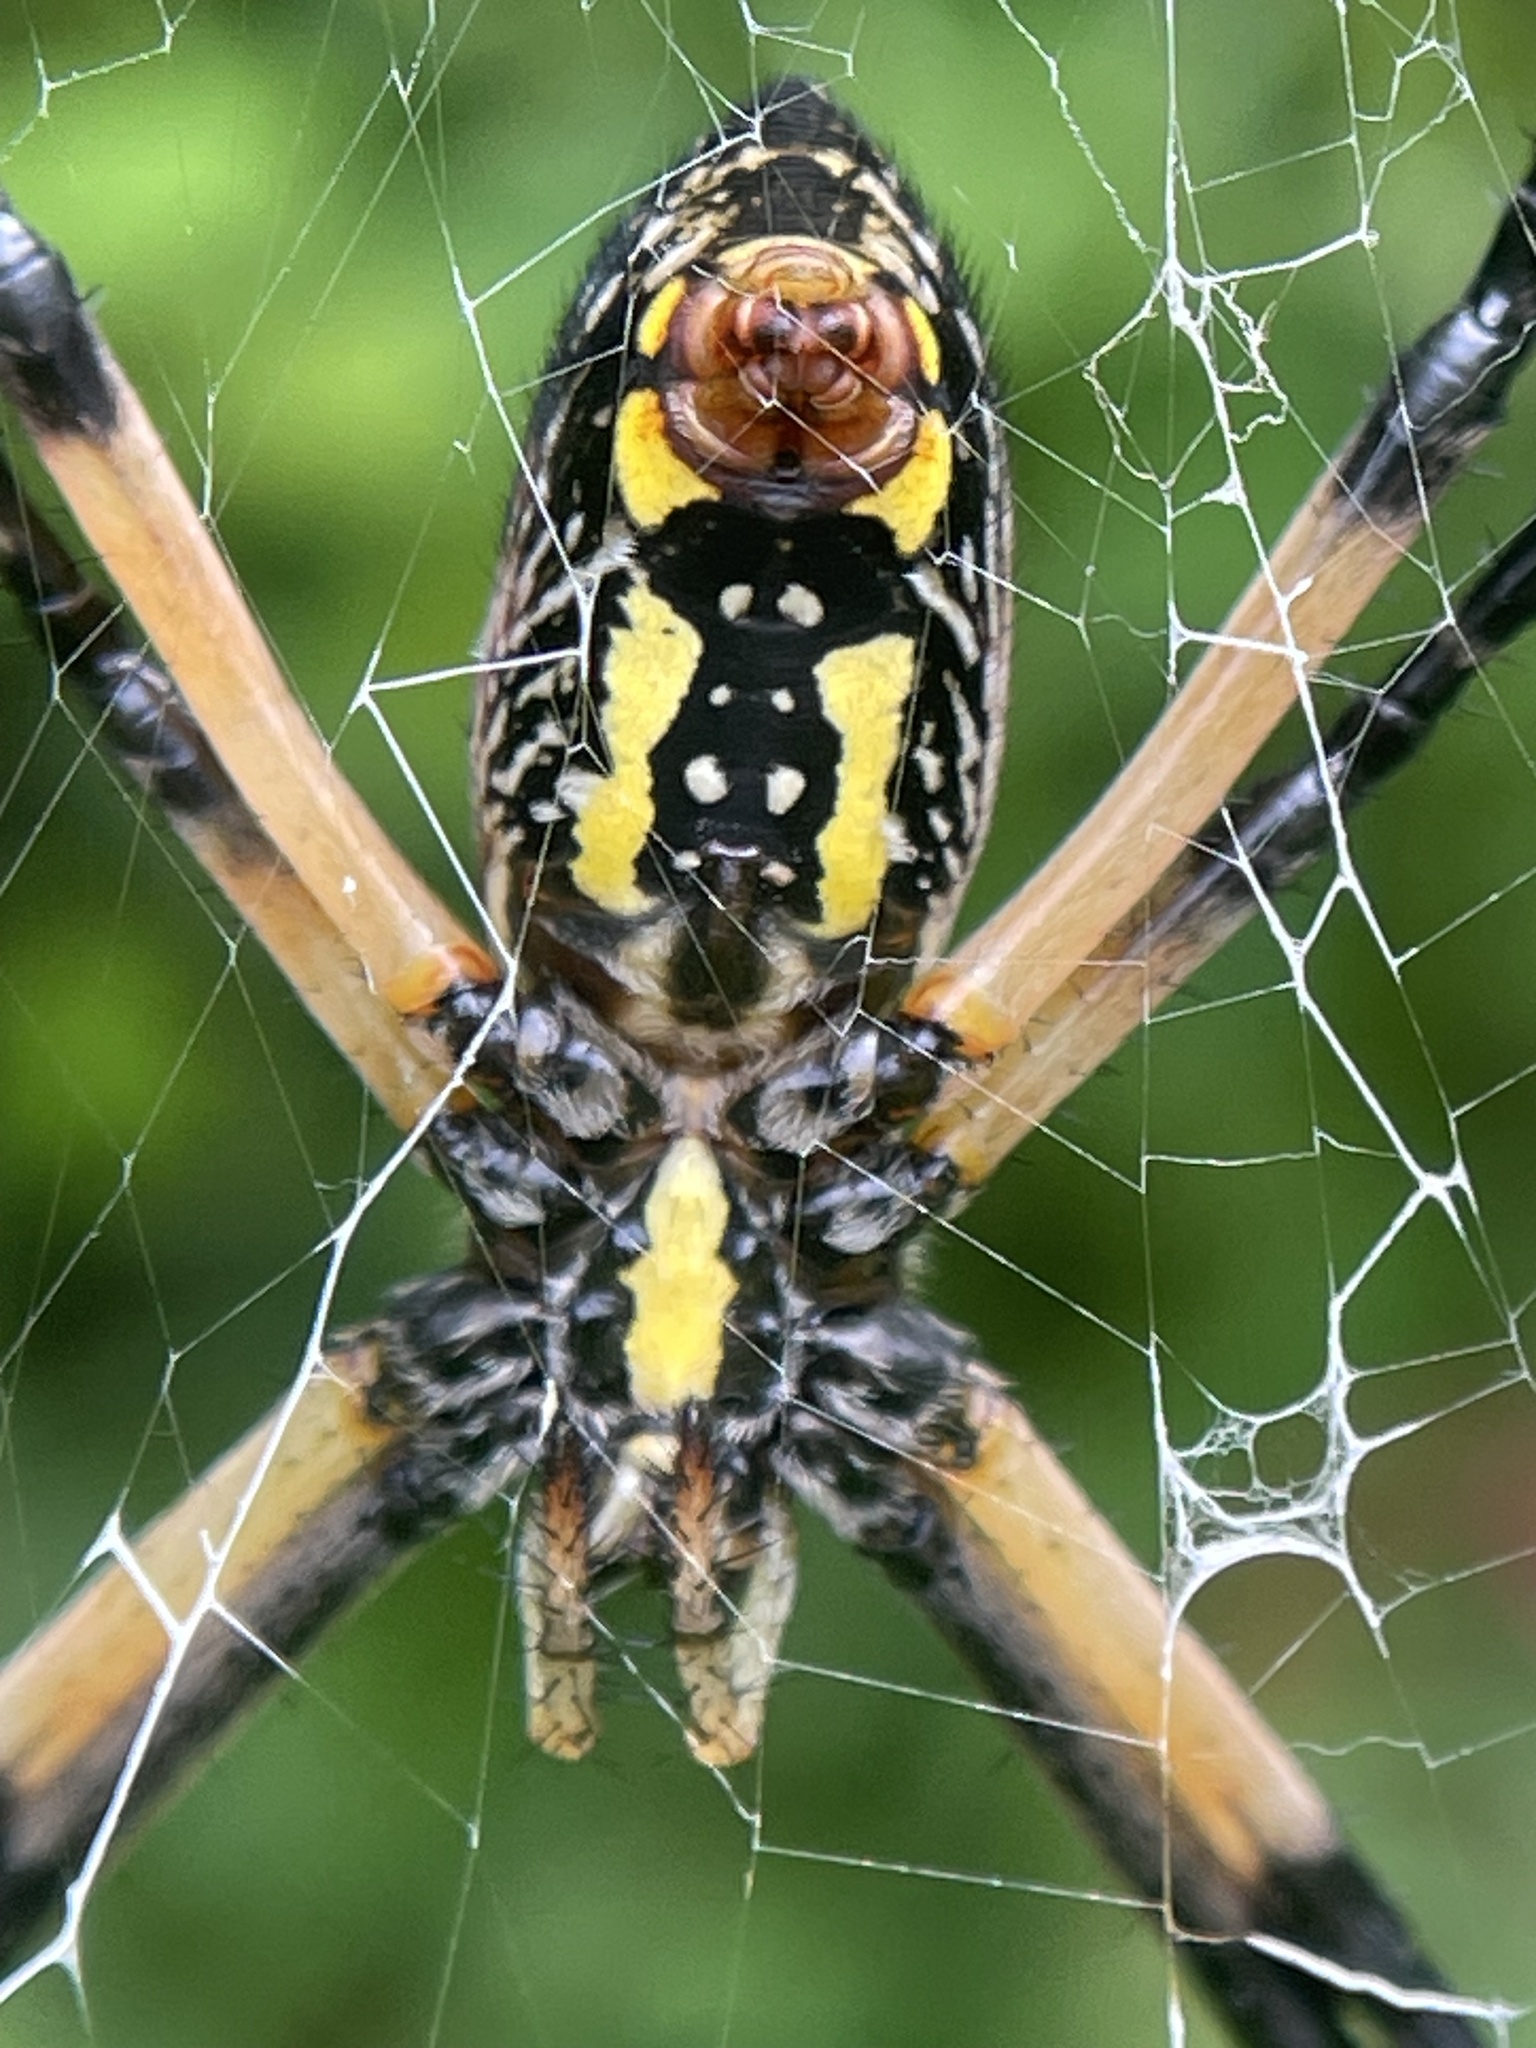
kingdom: Animalia
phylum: Arthropoda
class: Arachnida
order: Araneae
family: Araneidae
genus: Argiope
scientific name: Argiope aurantia
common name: Orb weavers
